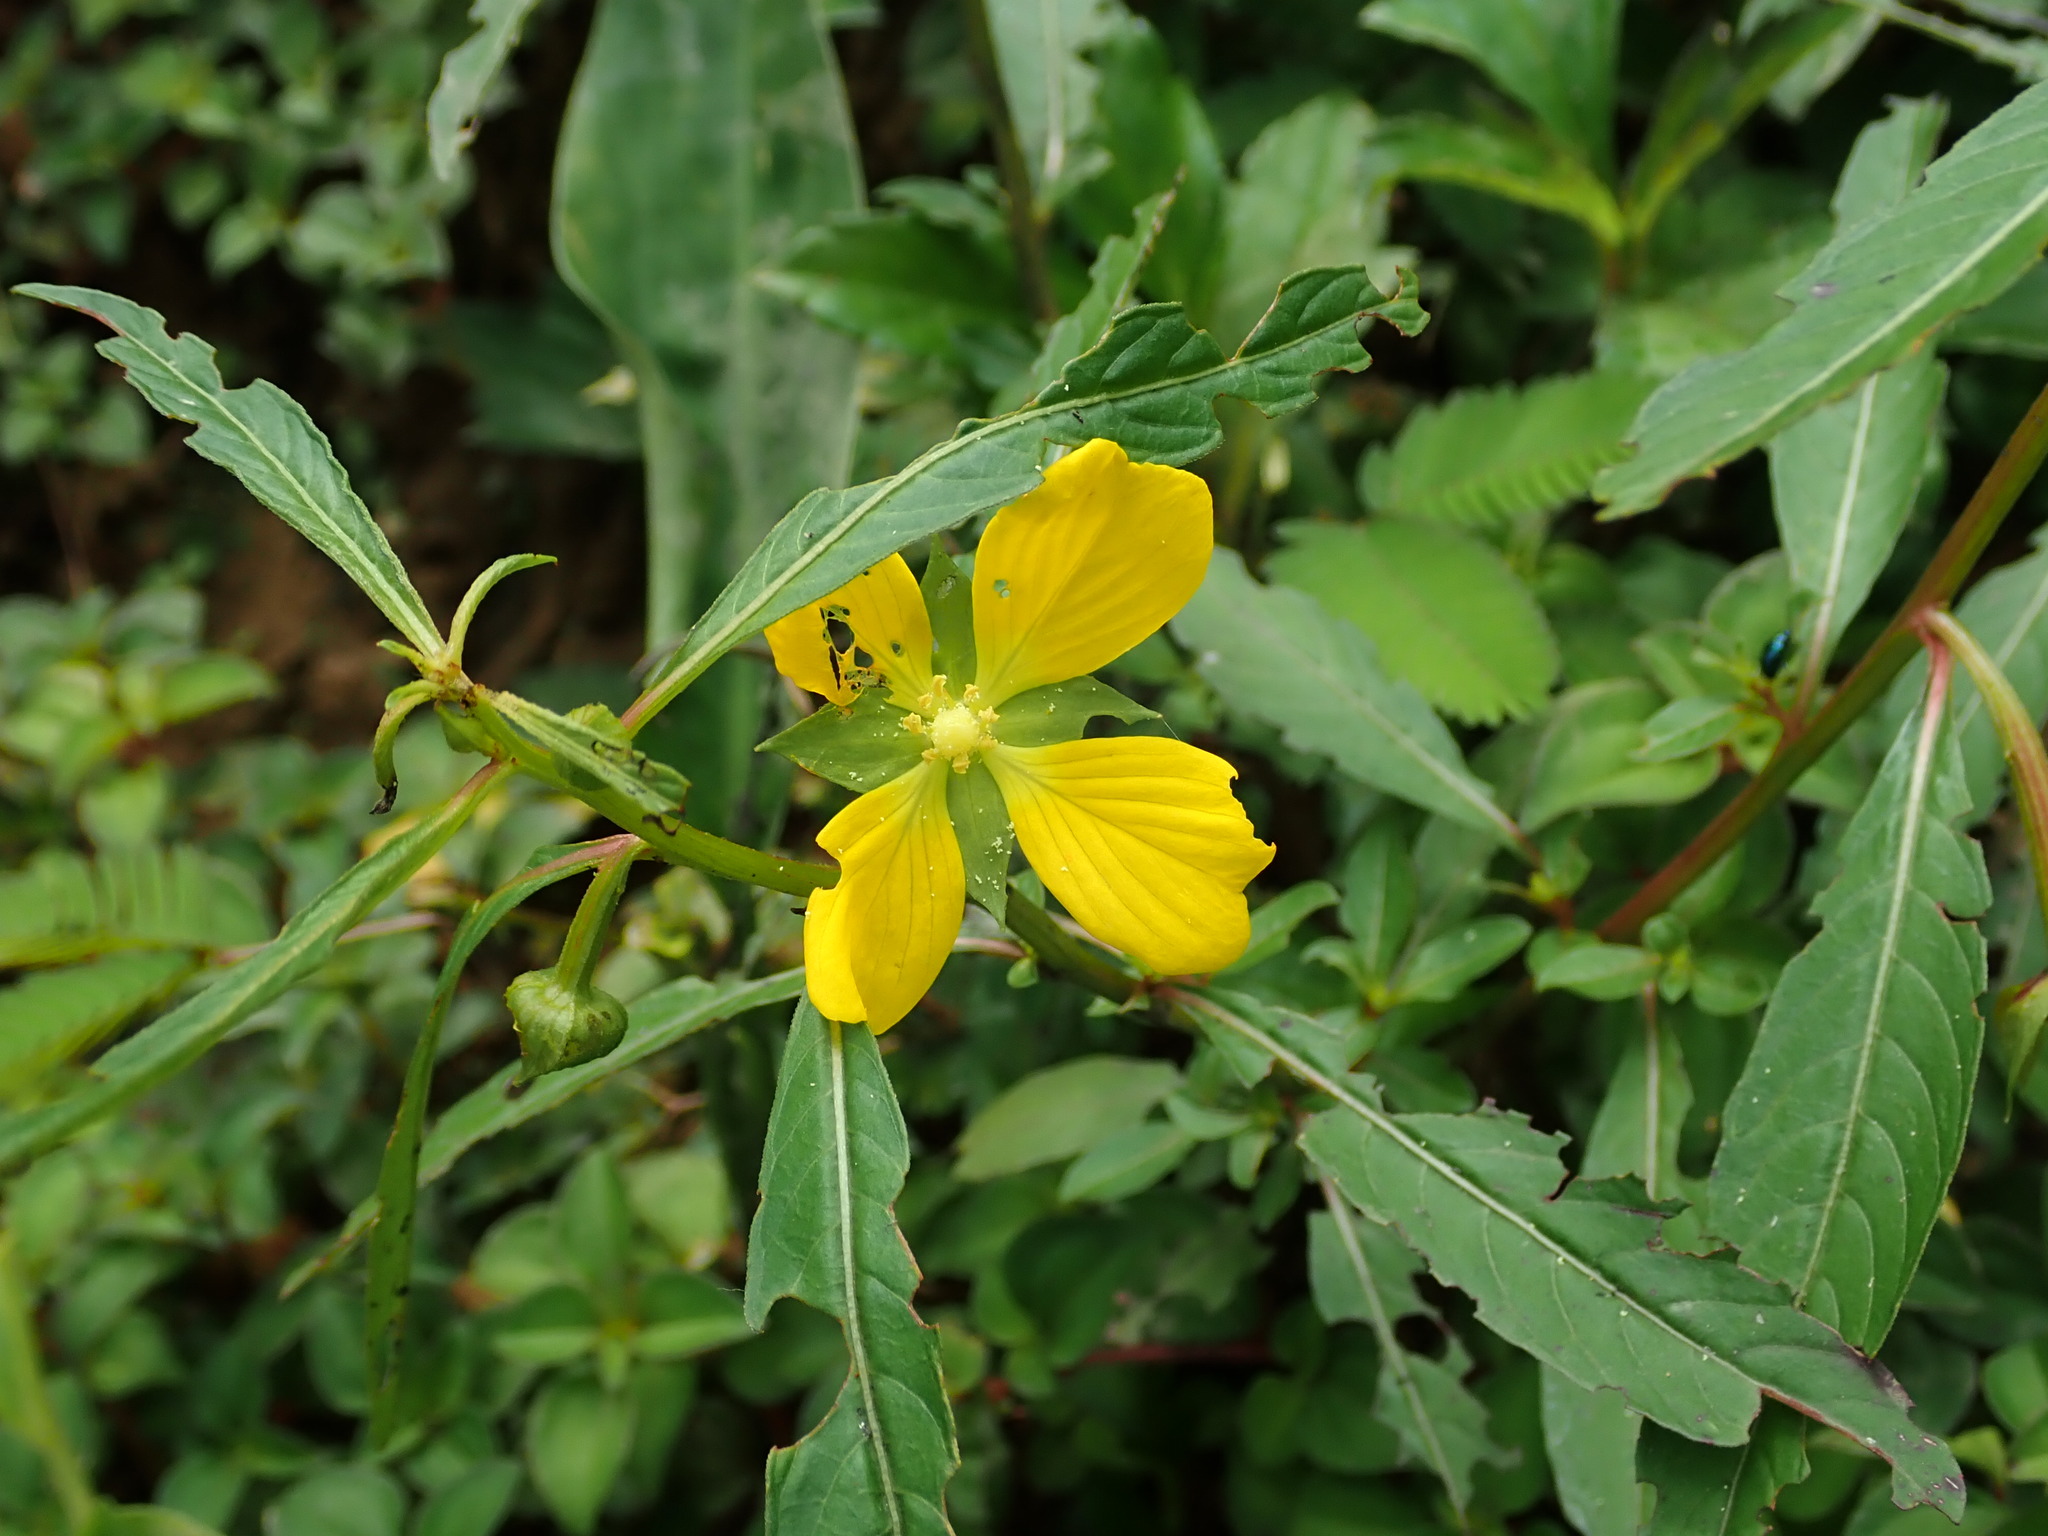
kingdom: Plantae
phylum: Tracheophyta
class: Magnoliopsida
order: Myrtales
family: Onagraceae
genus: Ludwigia
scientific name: Ludwigia octovalvis
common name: Water-primrose
